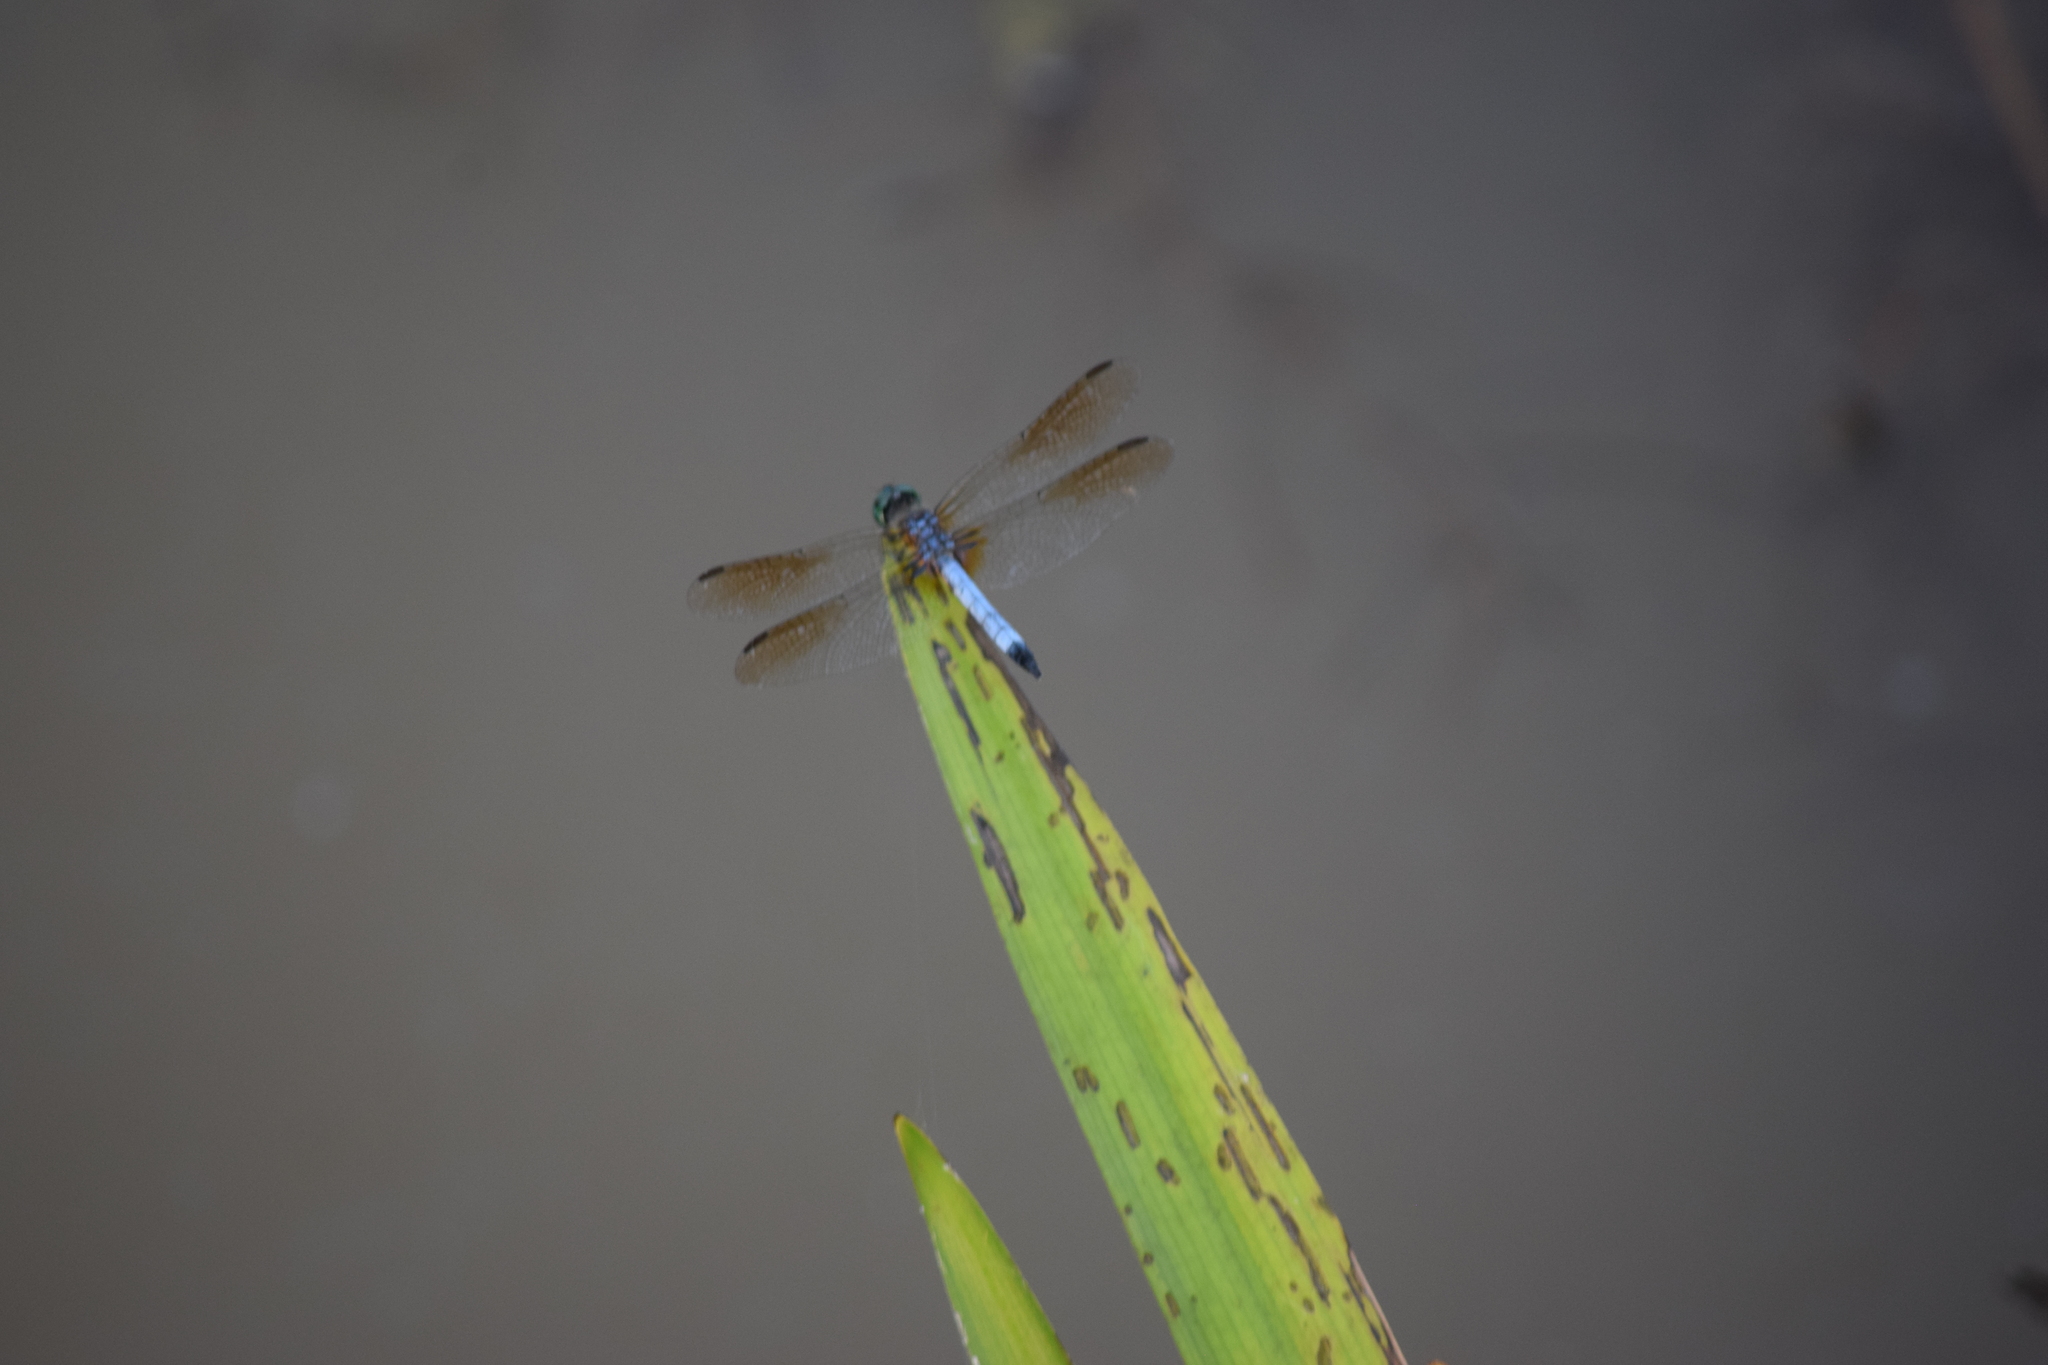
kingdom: Animalia
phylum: Arthropoda
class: Insecta
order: Odonata
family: Libellulidae
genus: Pachydiplax
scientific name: Pachydiplax longipennis
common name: Blue dasher
